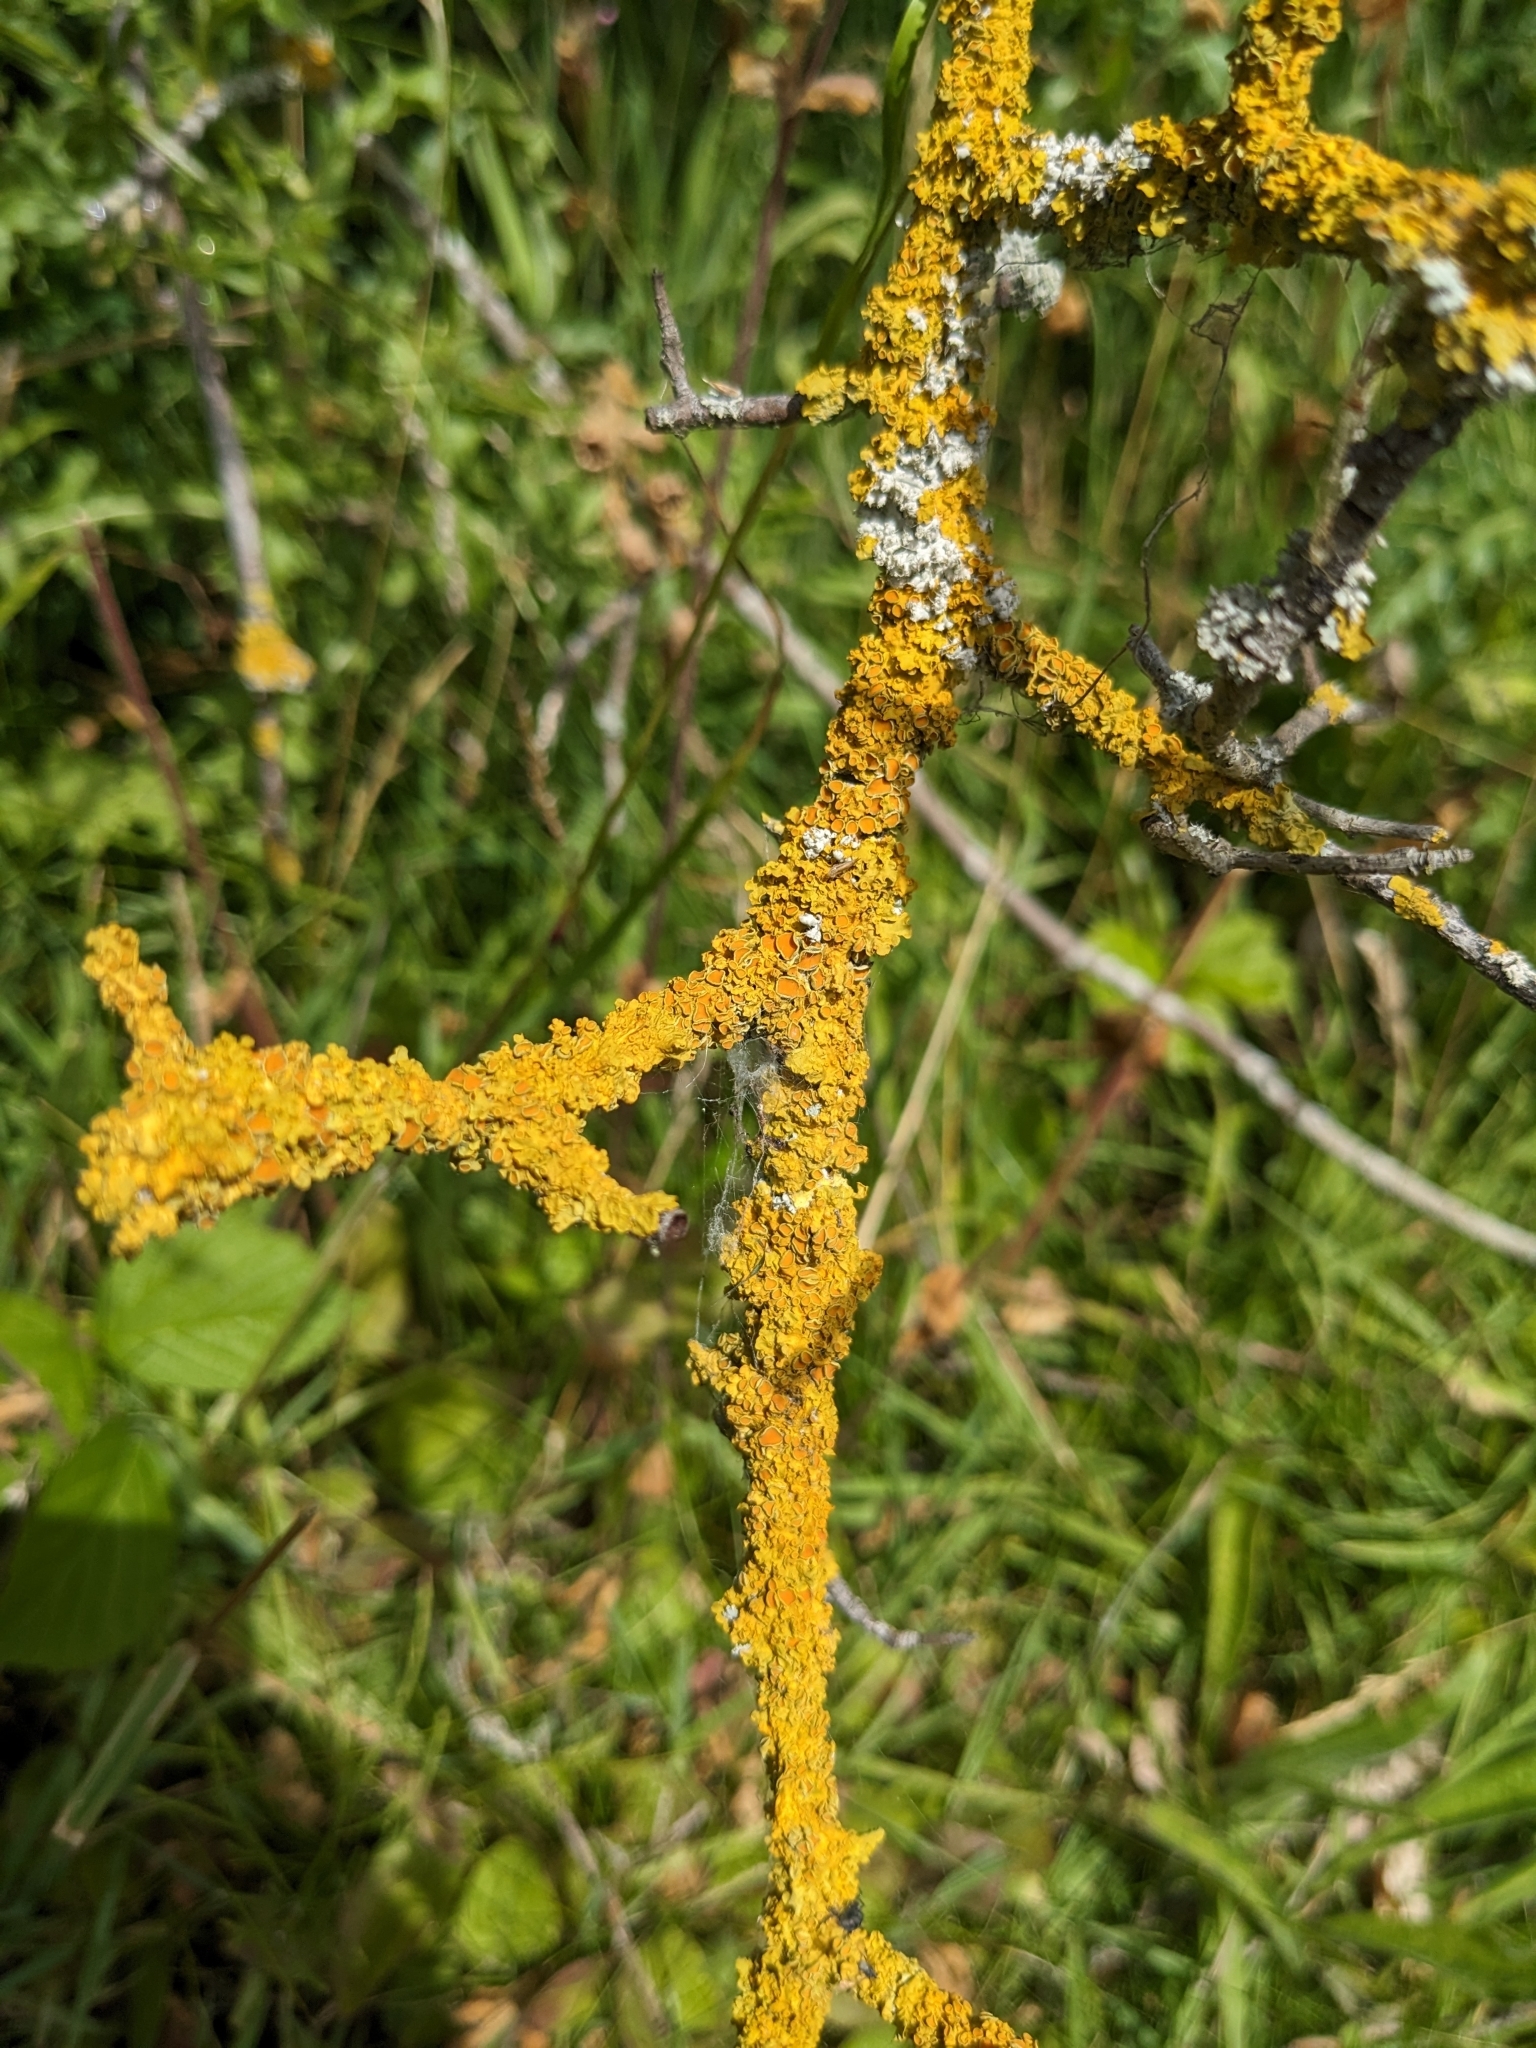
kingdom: Fungi
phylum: Ascomycota
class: Lecanoromycetes
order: Teloschistales
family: Teloschistaceae
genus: Xanthoria
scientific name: Xanthoria parietina
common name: Common orange lichen
